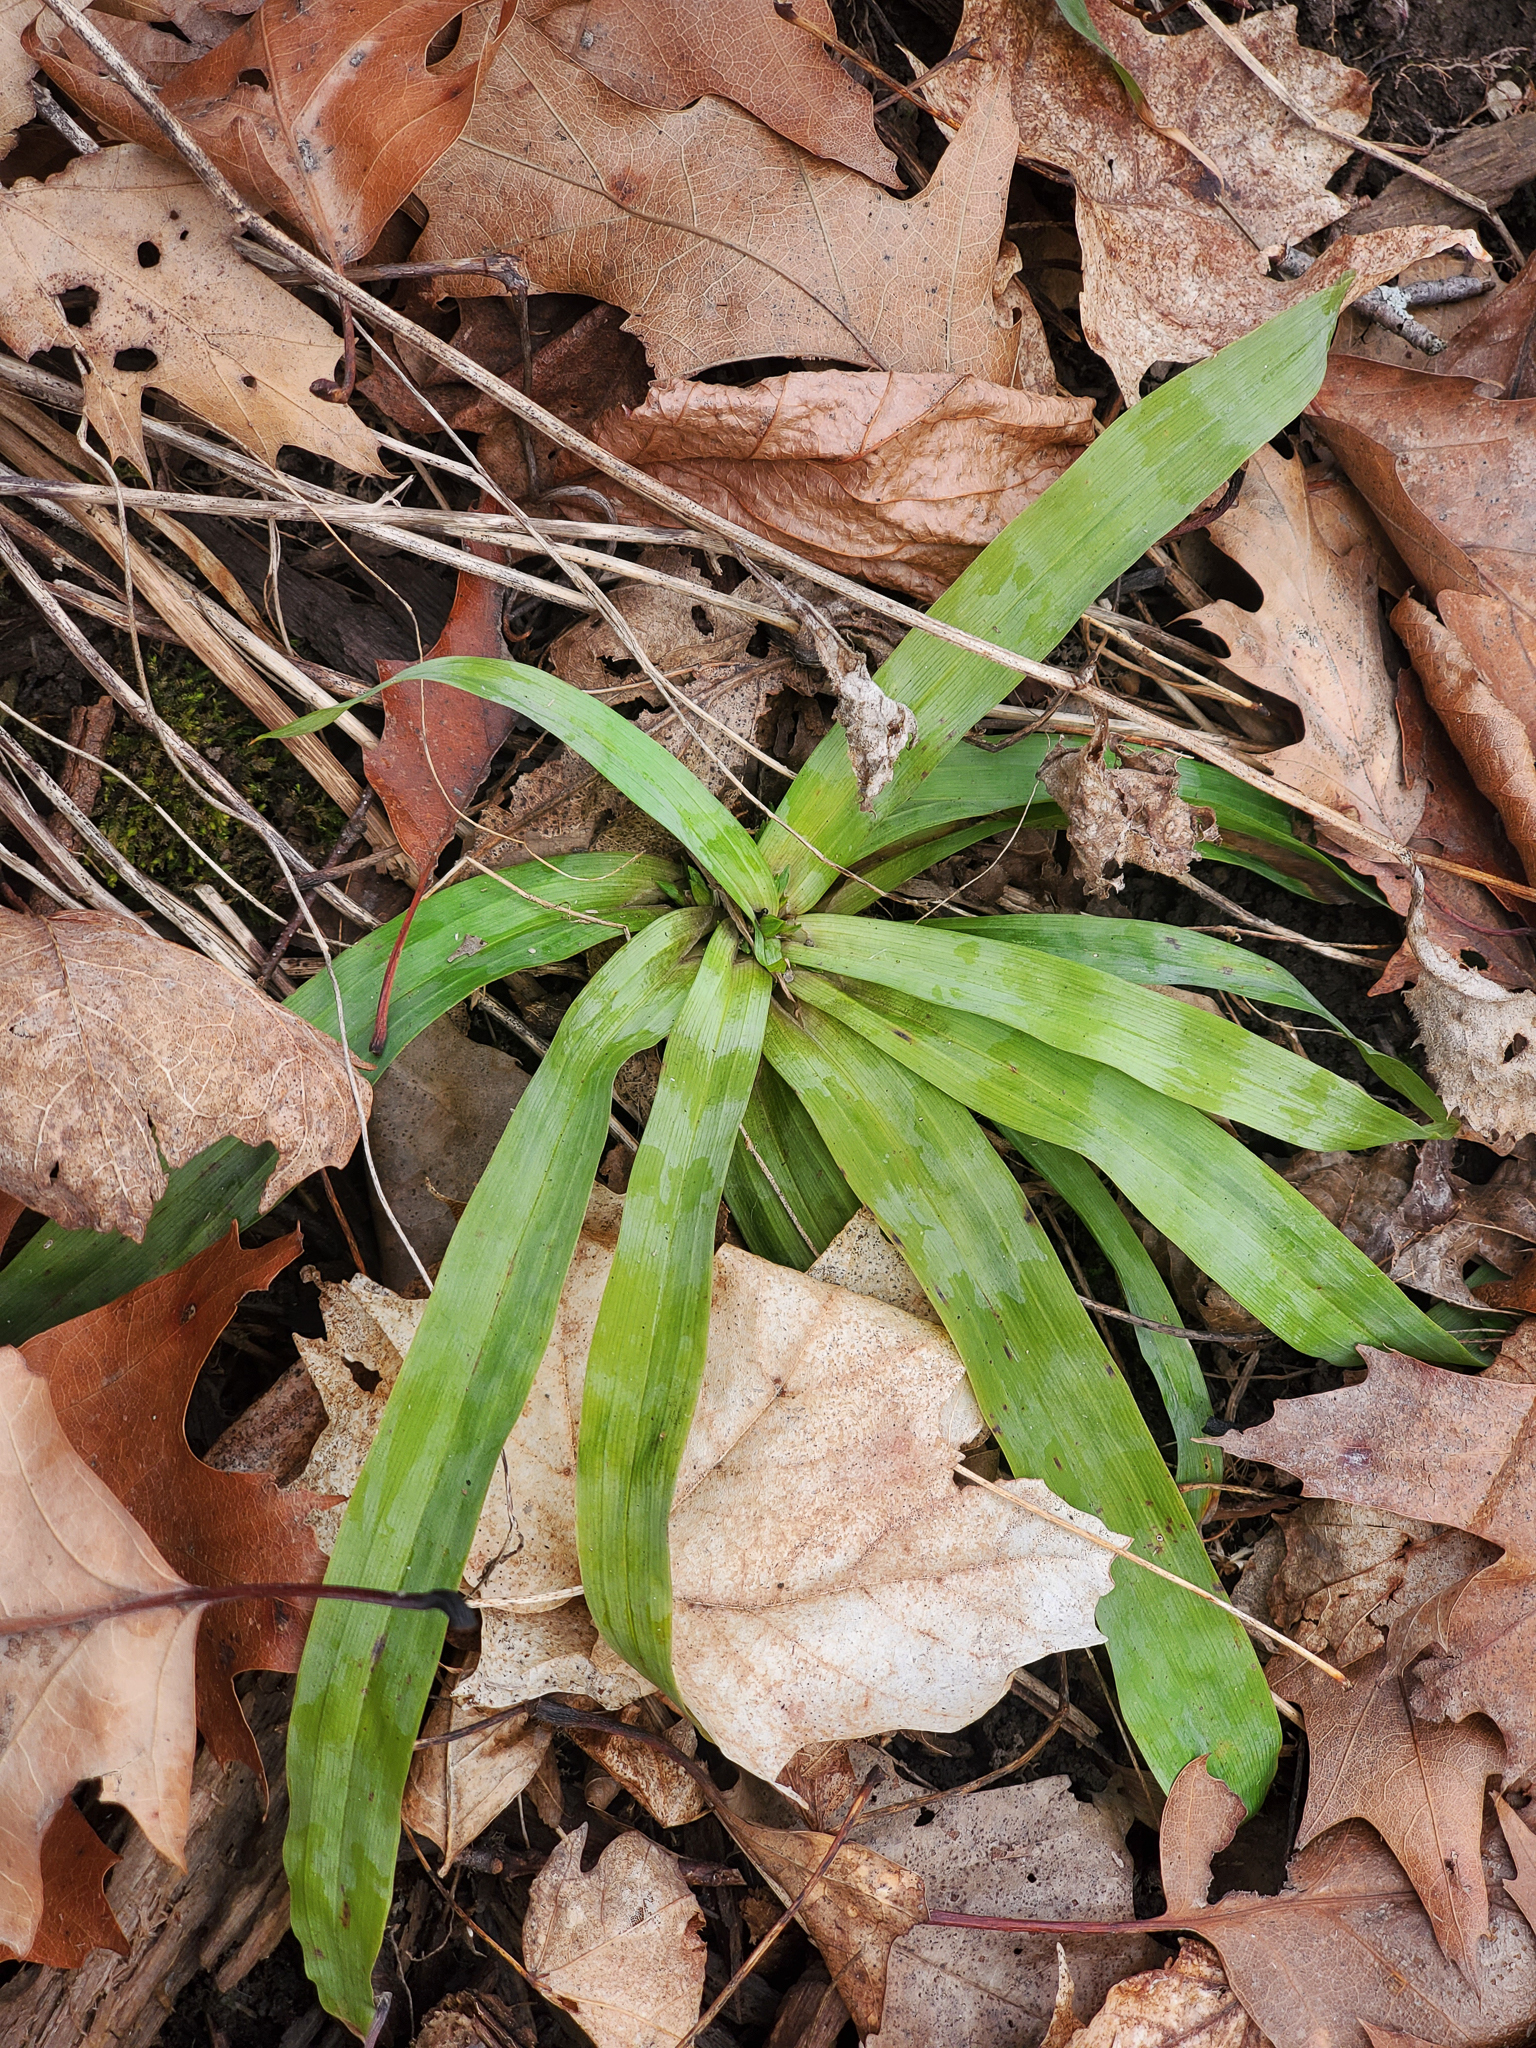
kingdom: Plantae
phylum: Tracheophyta
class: Liliopsida
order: Poales
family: Cyperaceae
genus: Carex
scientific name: Carex platyphylla
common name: Broad-leaved sedge
